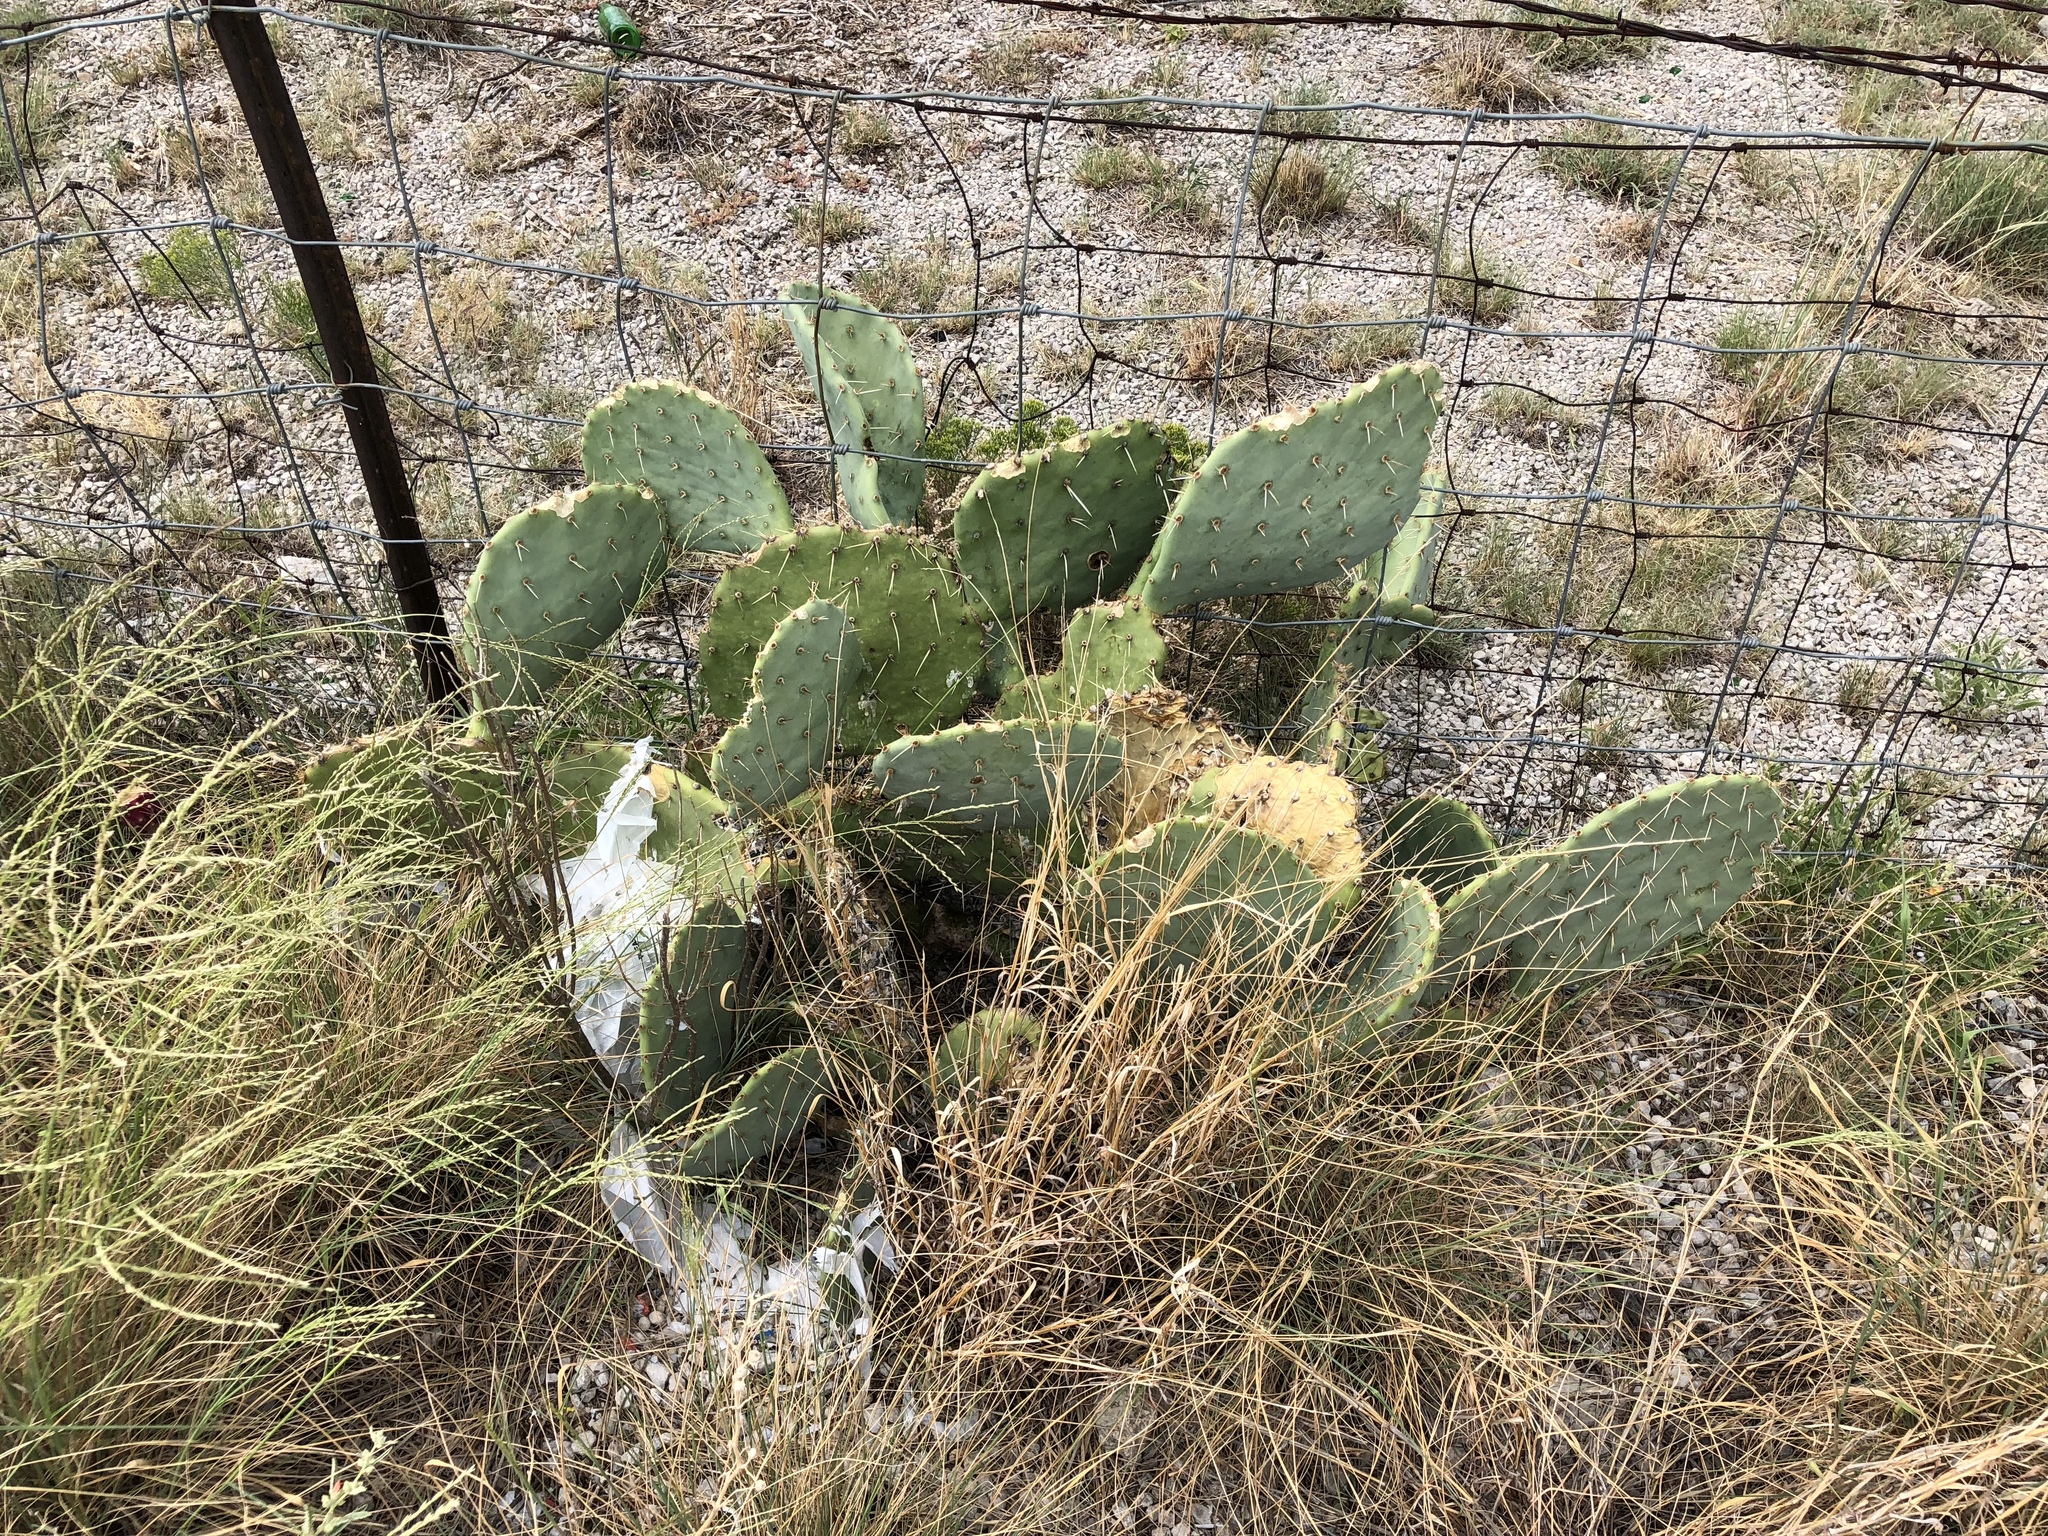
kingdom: Plantae
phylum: Tracheophyta
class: Magnoliopsida
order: Caryophyllales
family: Cactaceae
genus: Opuntia
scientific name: Opuntia orbiculata
